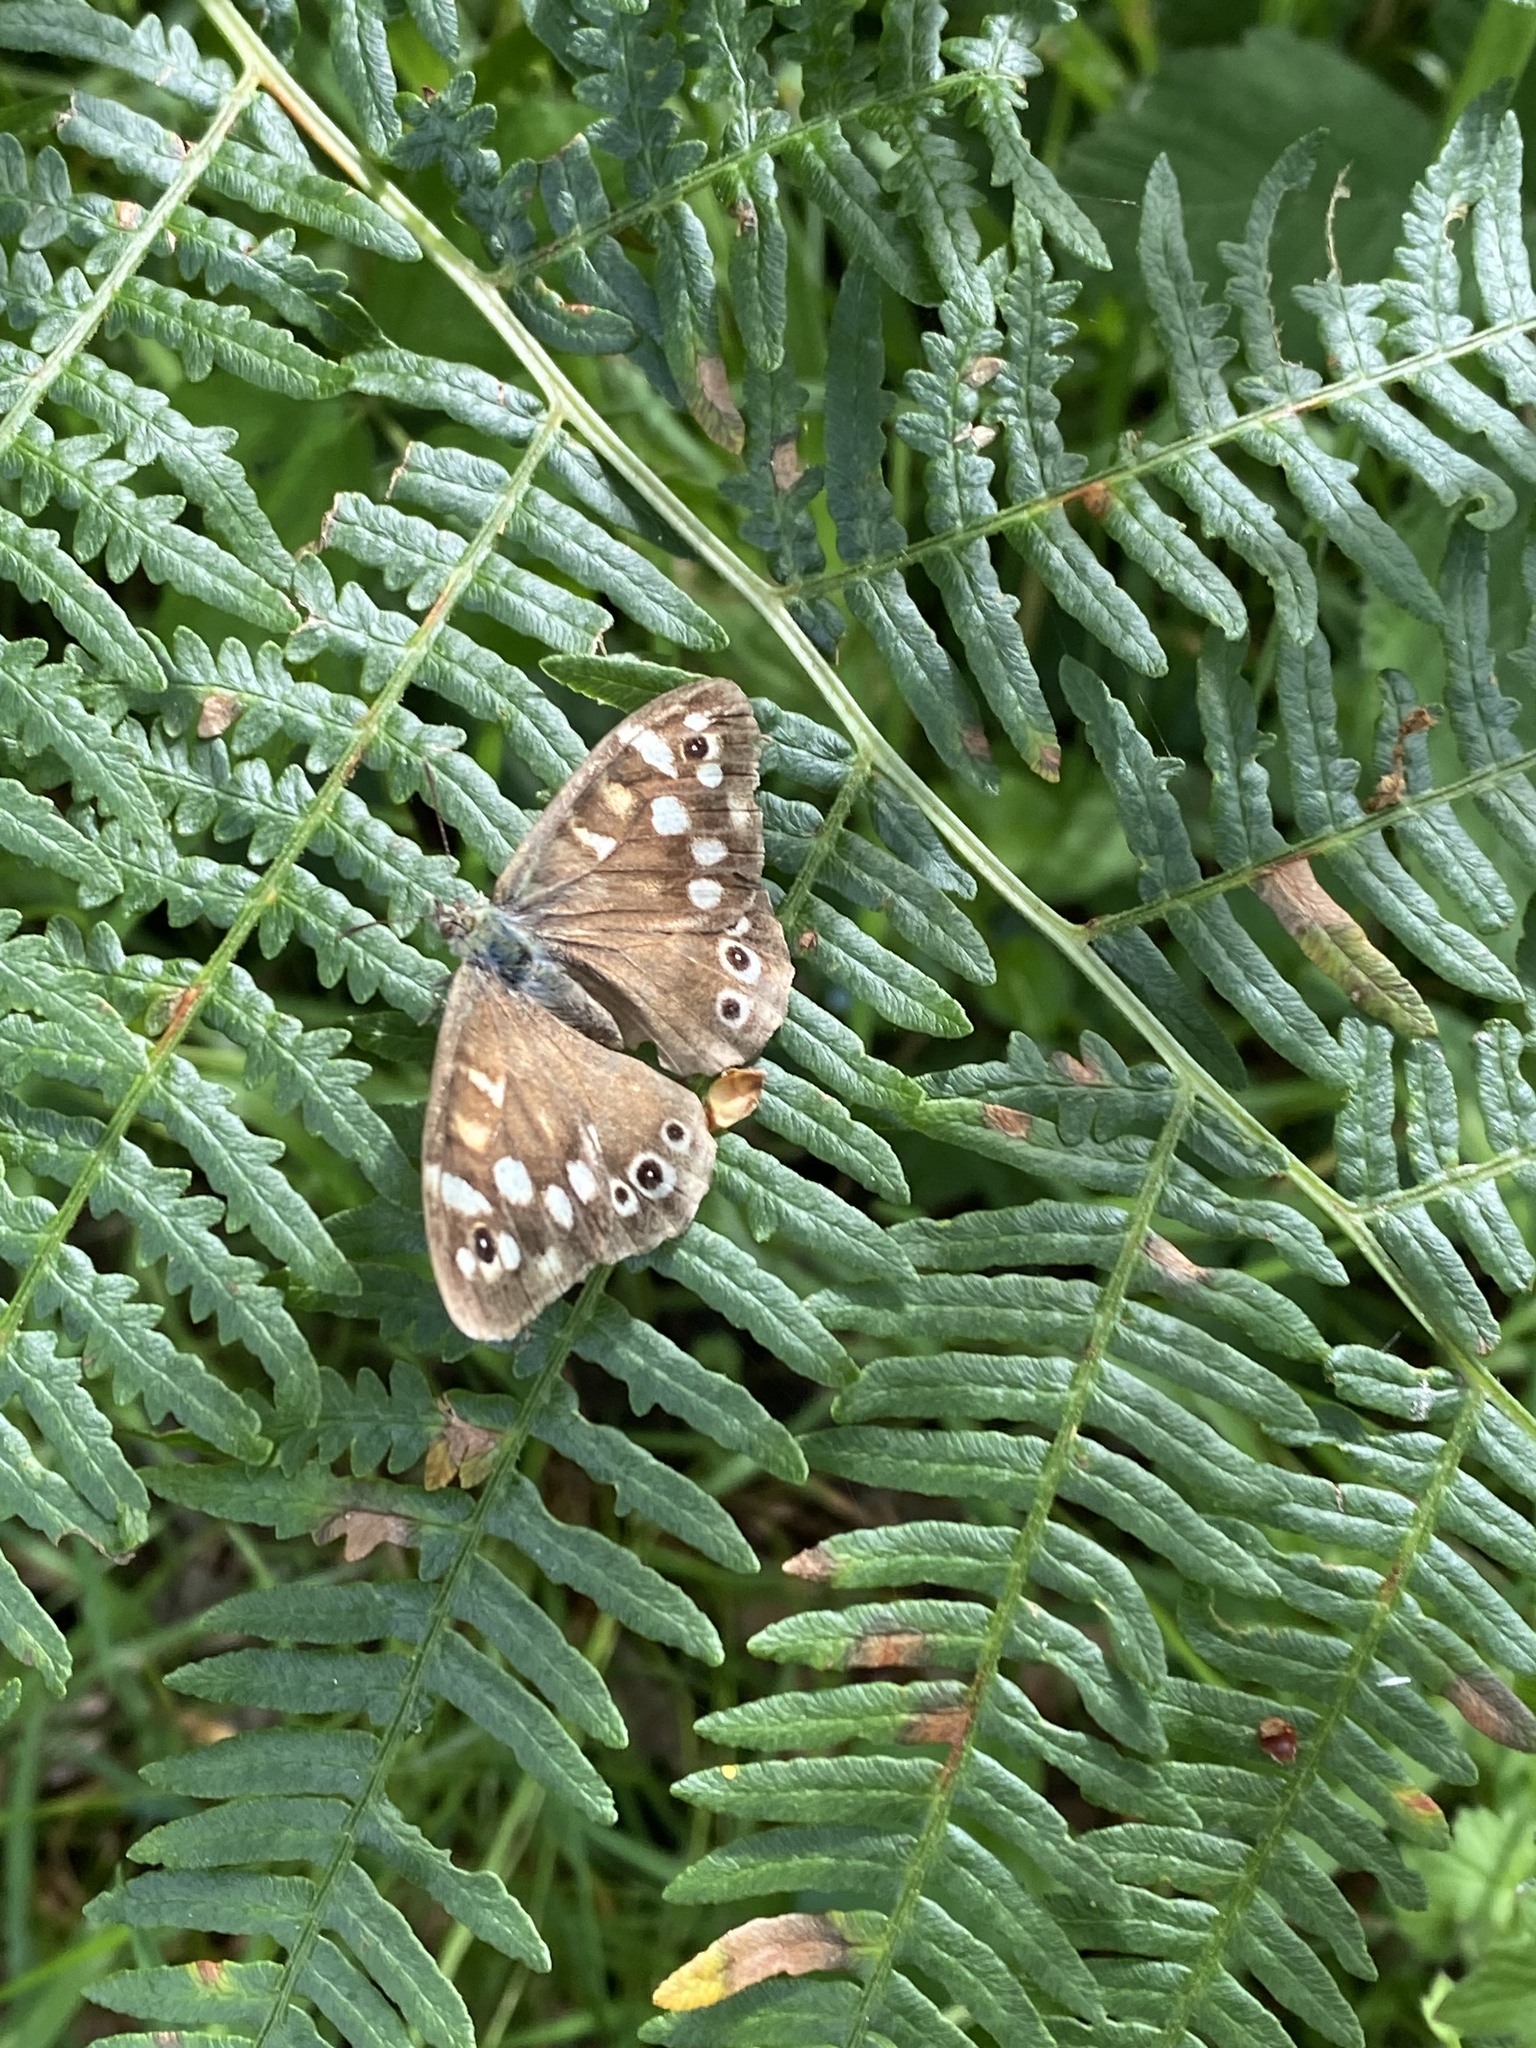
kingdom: Animalia
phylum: Arthropoda
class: Insecta
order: Lepidoptera
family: Nymphalidae
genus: Pararge
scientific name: Pararge aegeria
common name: Speckled wood
